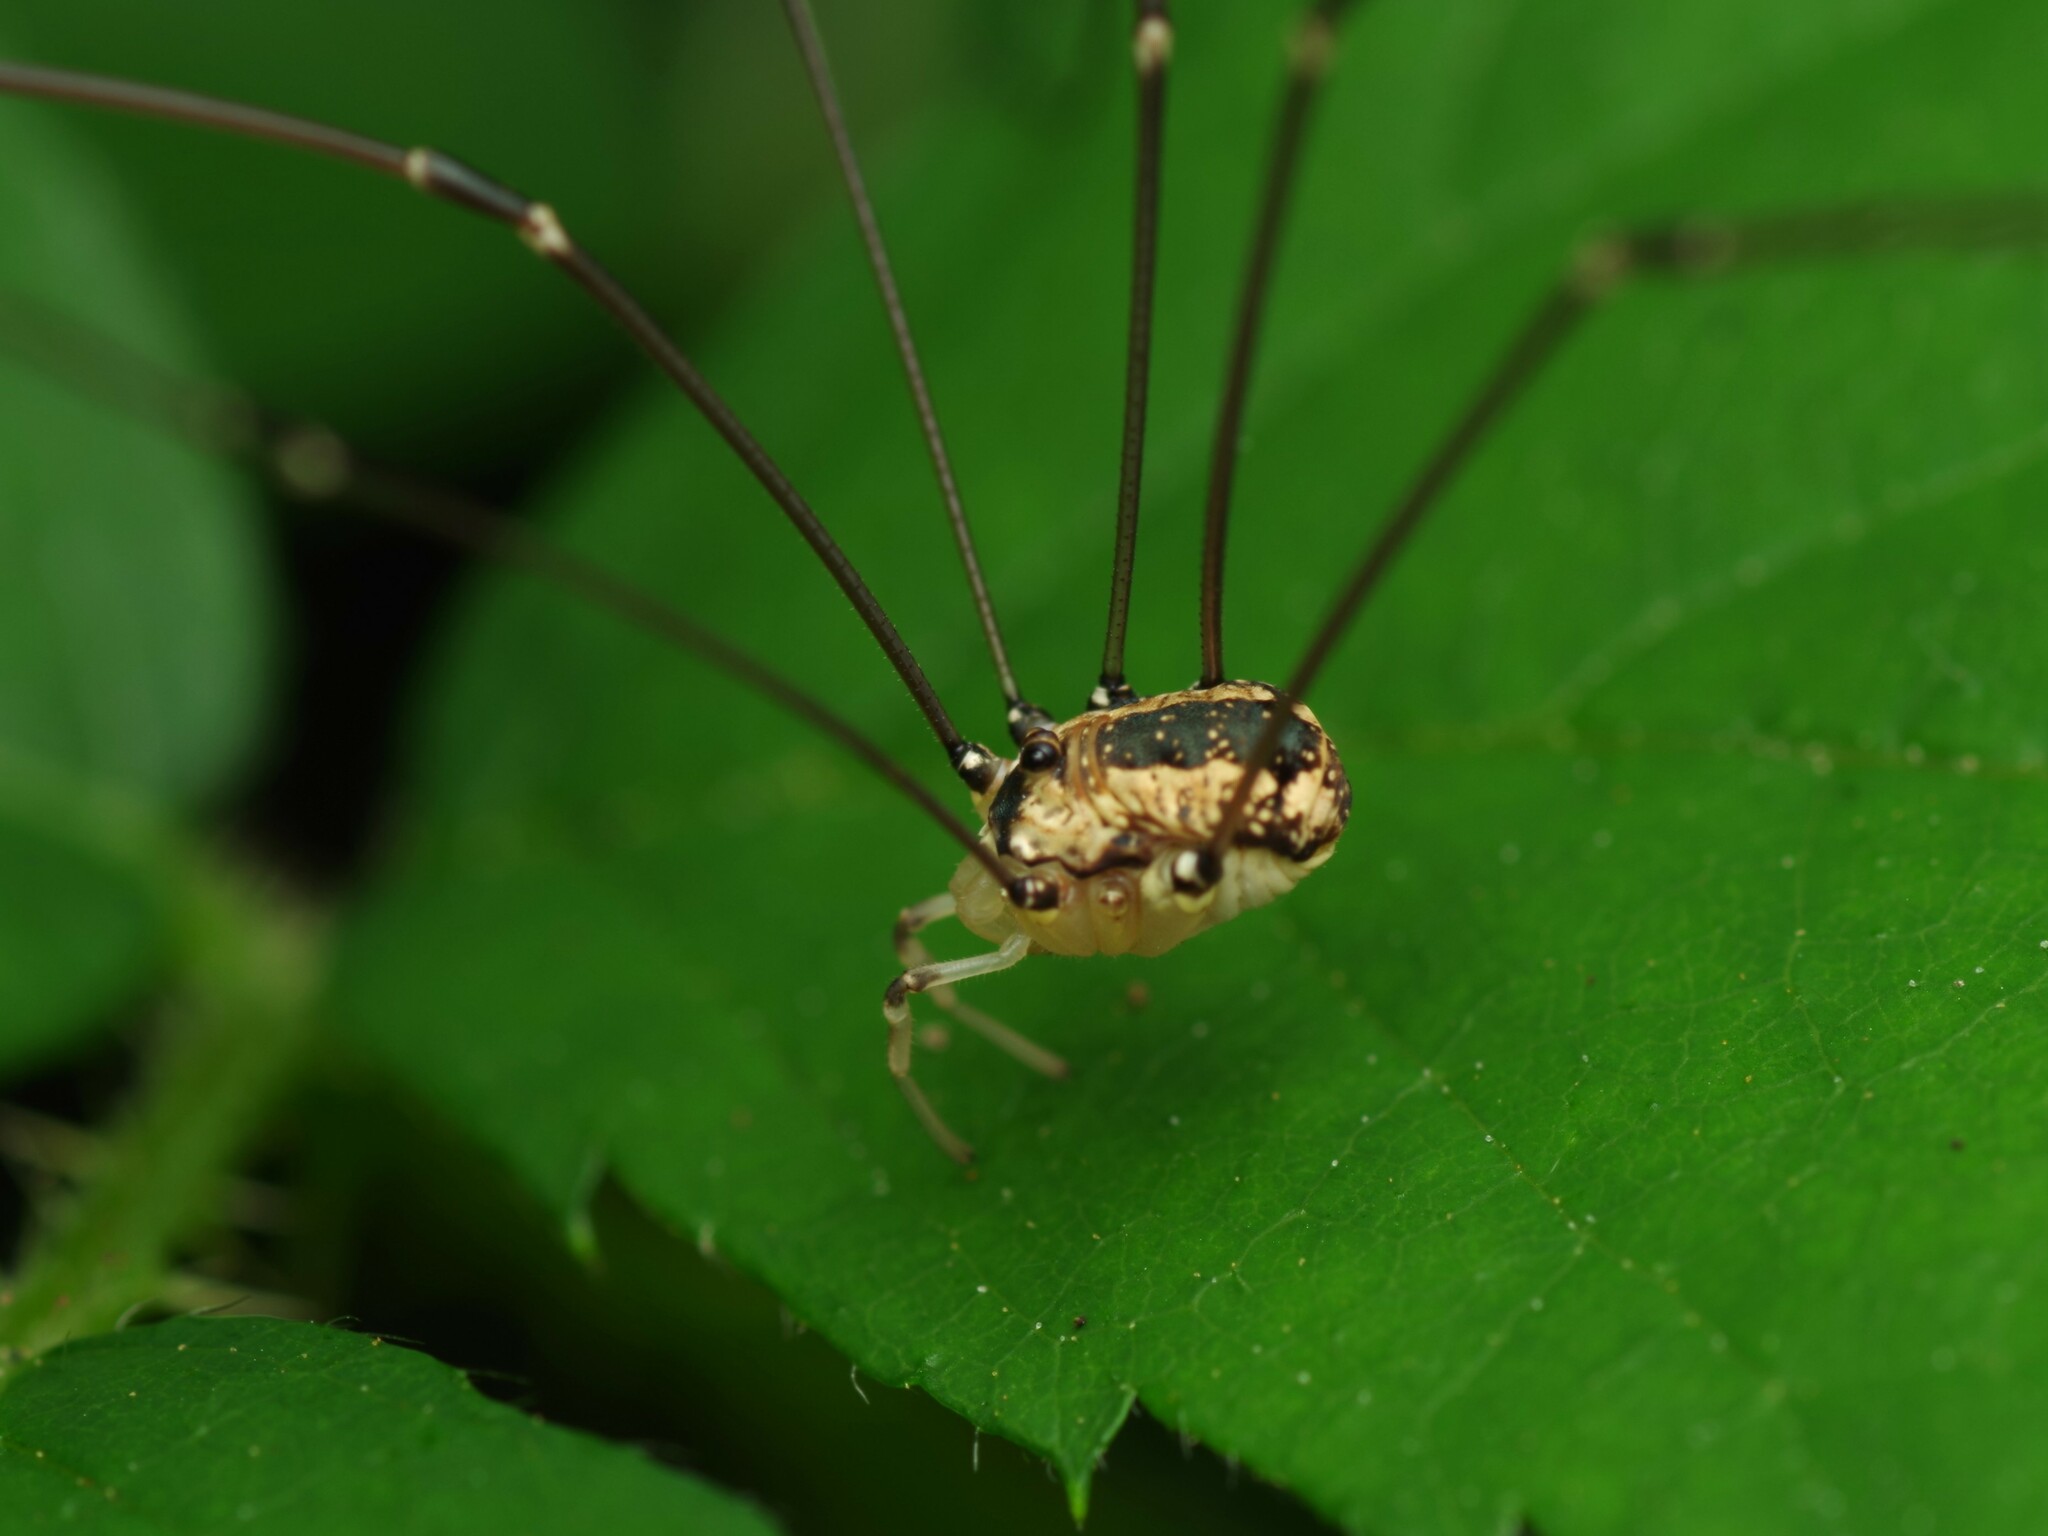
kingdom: Animalia
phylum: Arthropoda
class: Arachnida
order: Opiliones
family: Sclerosomatidae
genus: Leiobunum
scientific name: Leiobunum rotundum
